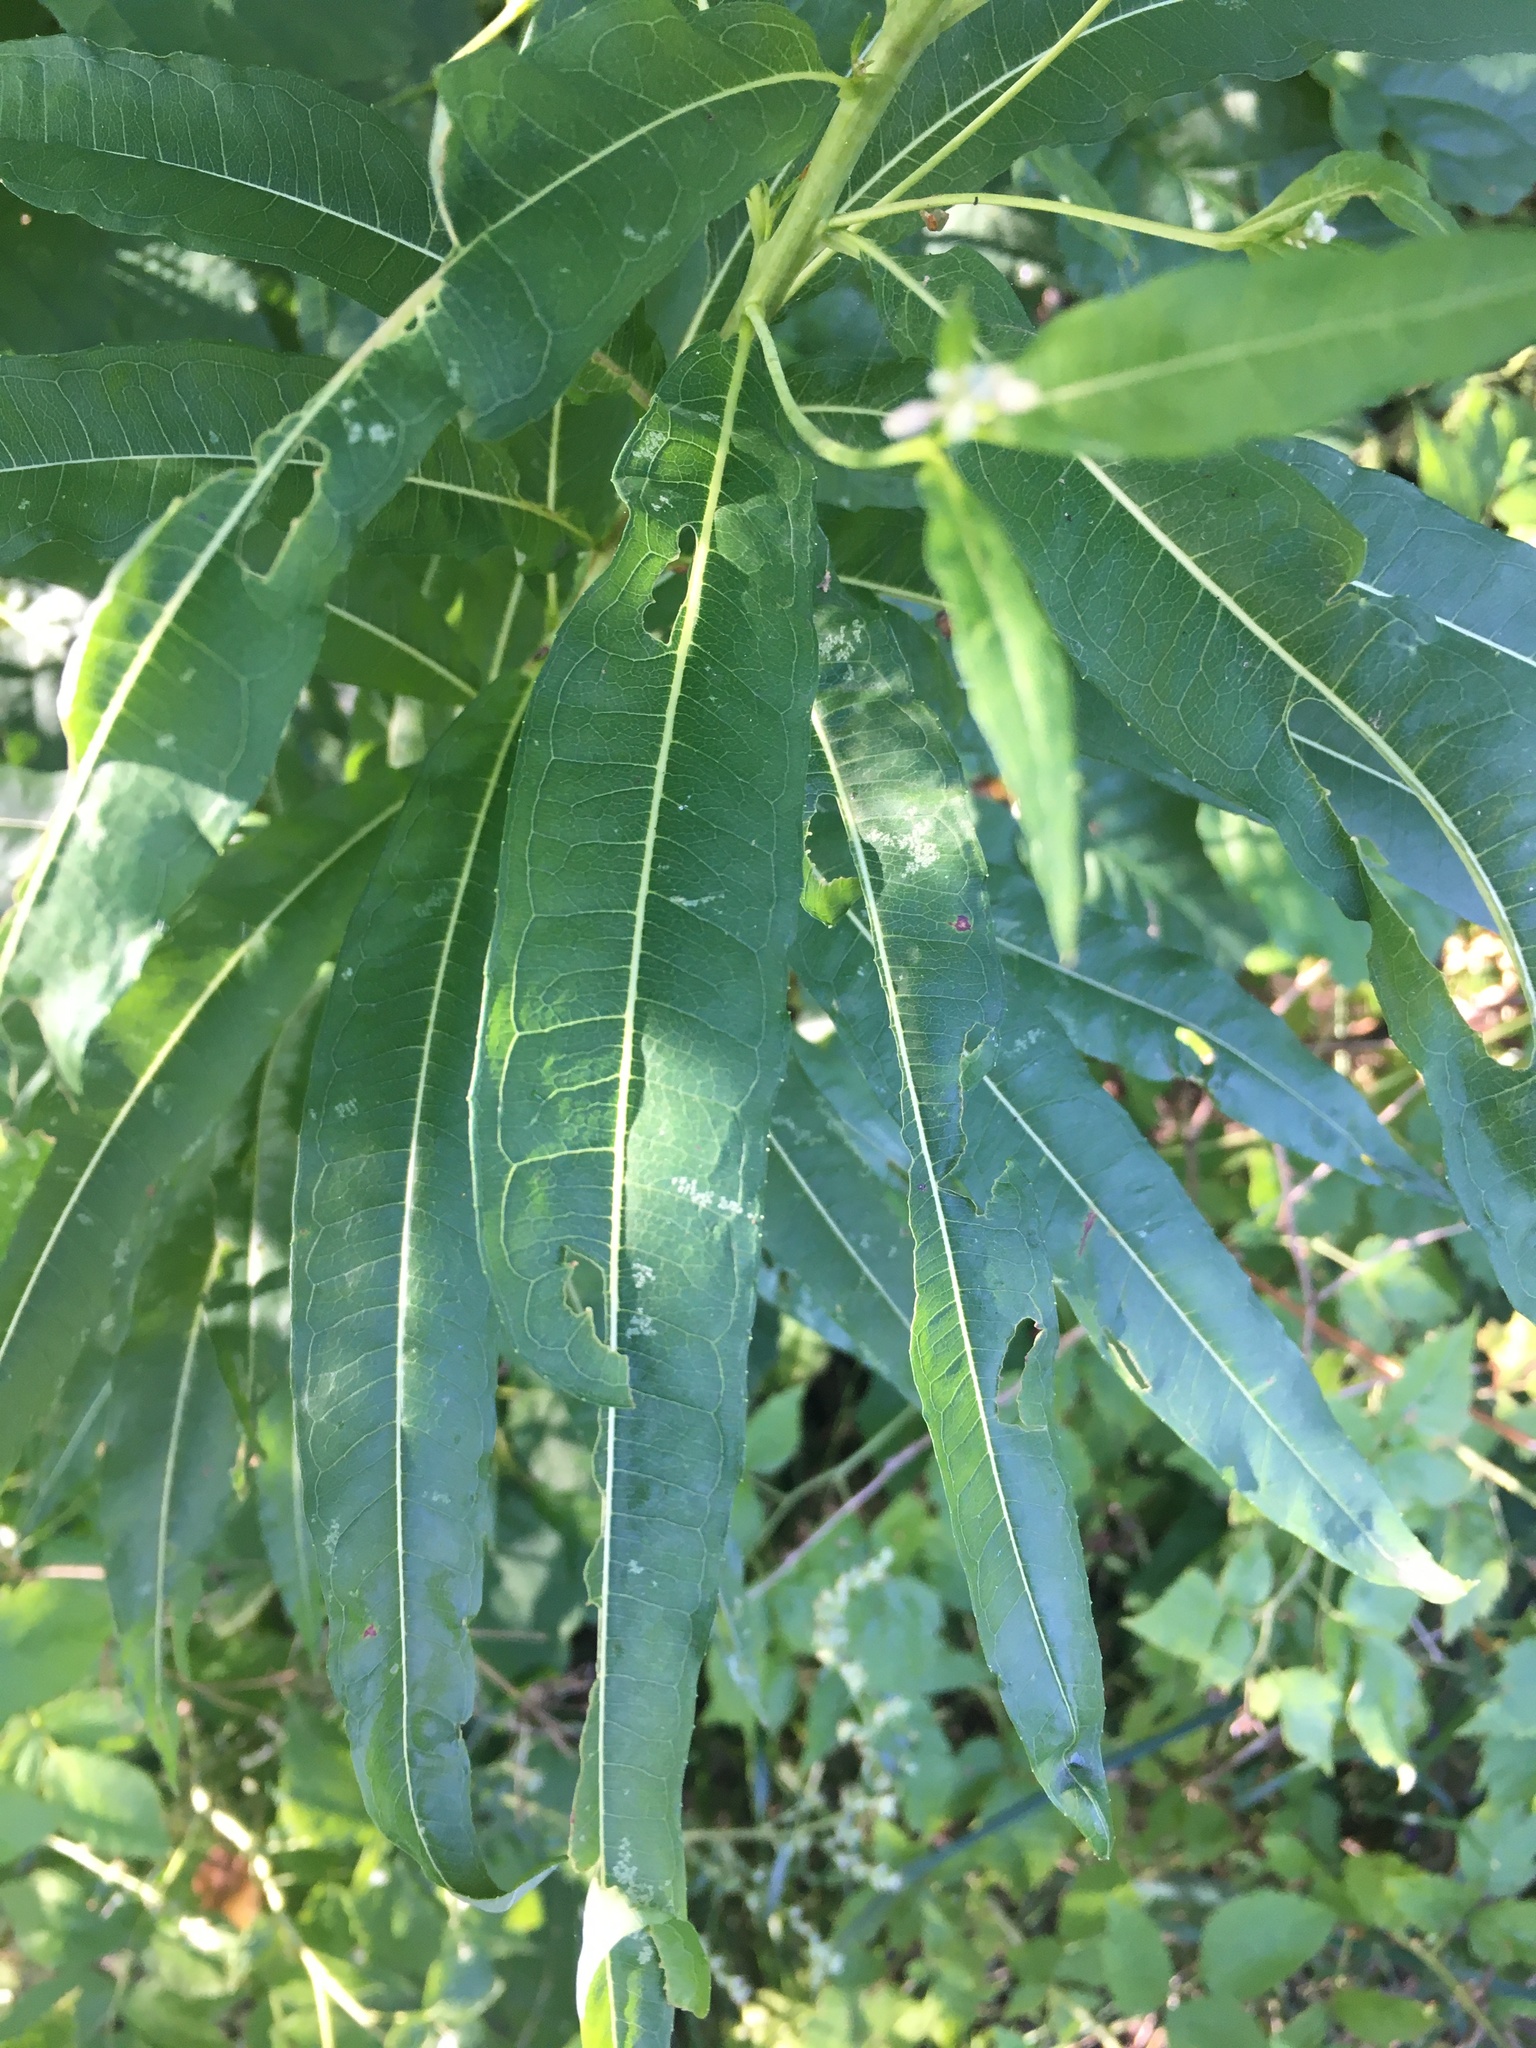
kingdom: Plantae
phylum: Tracheophyta
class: Magnoliopsida
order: Myrtales
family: Onagraceae
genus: Chamaenerion
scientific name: Chamaenerion angustifolium
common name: Fireweed
